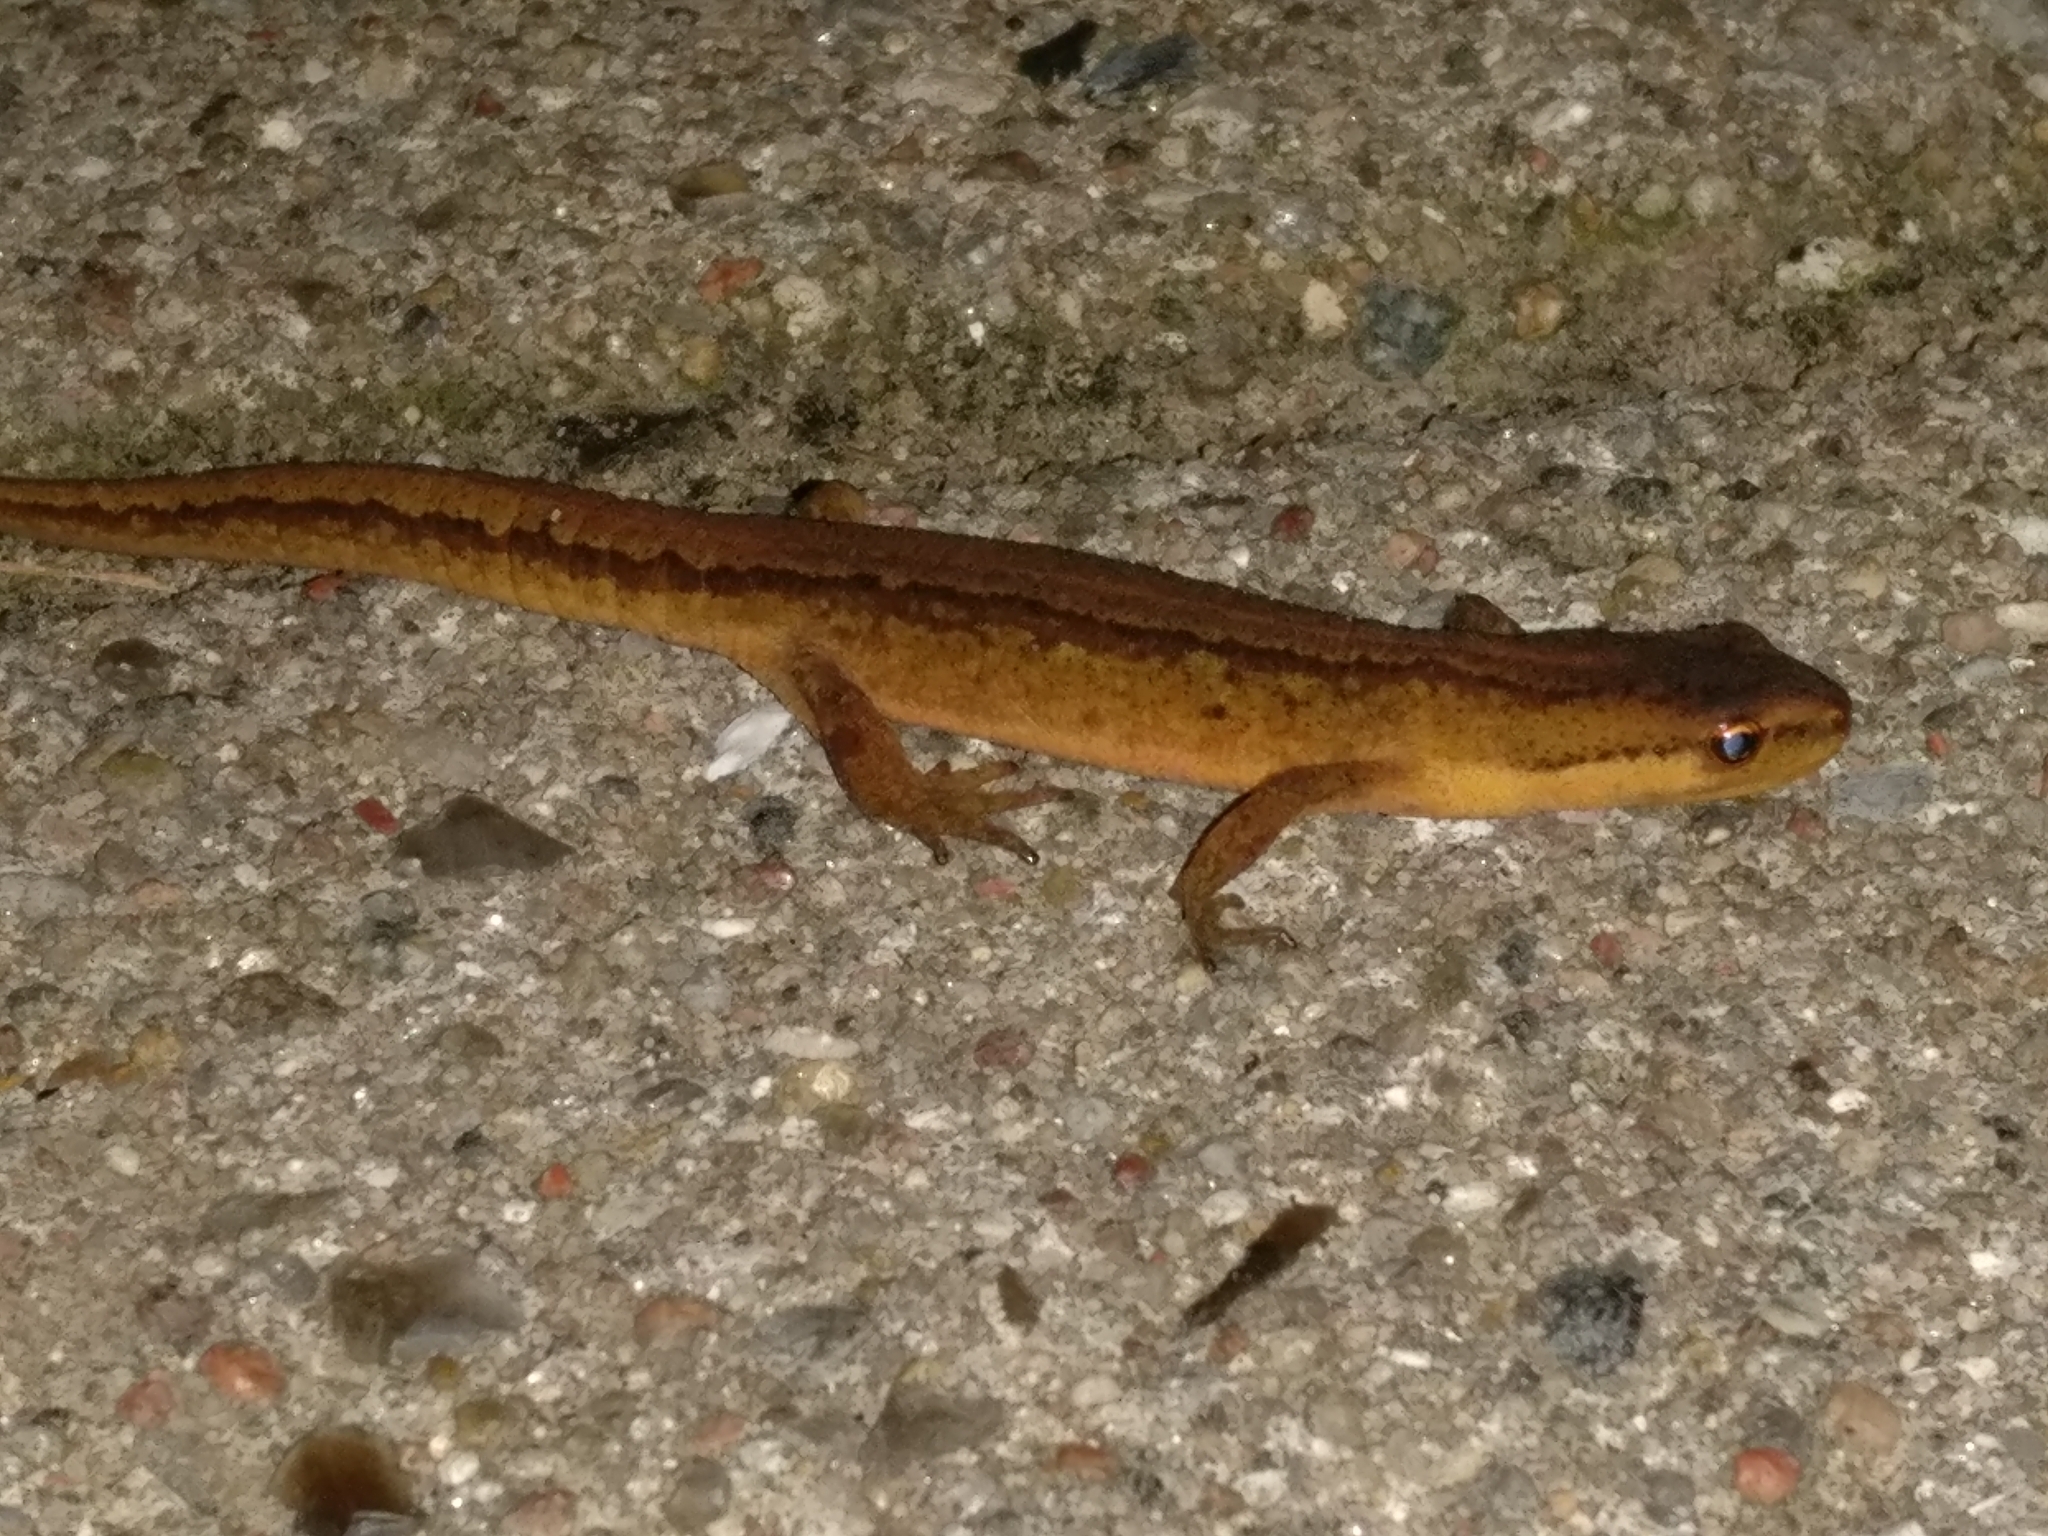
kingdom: Animalia
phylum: Chordata
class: Amphibia
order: Caudata
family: Salamandridae
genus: Lissotriton
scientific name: Lissotriton vulgaris
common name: Smooth newt
